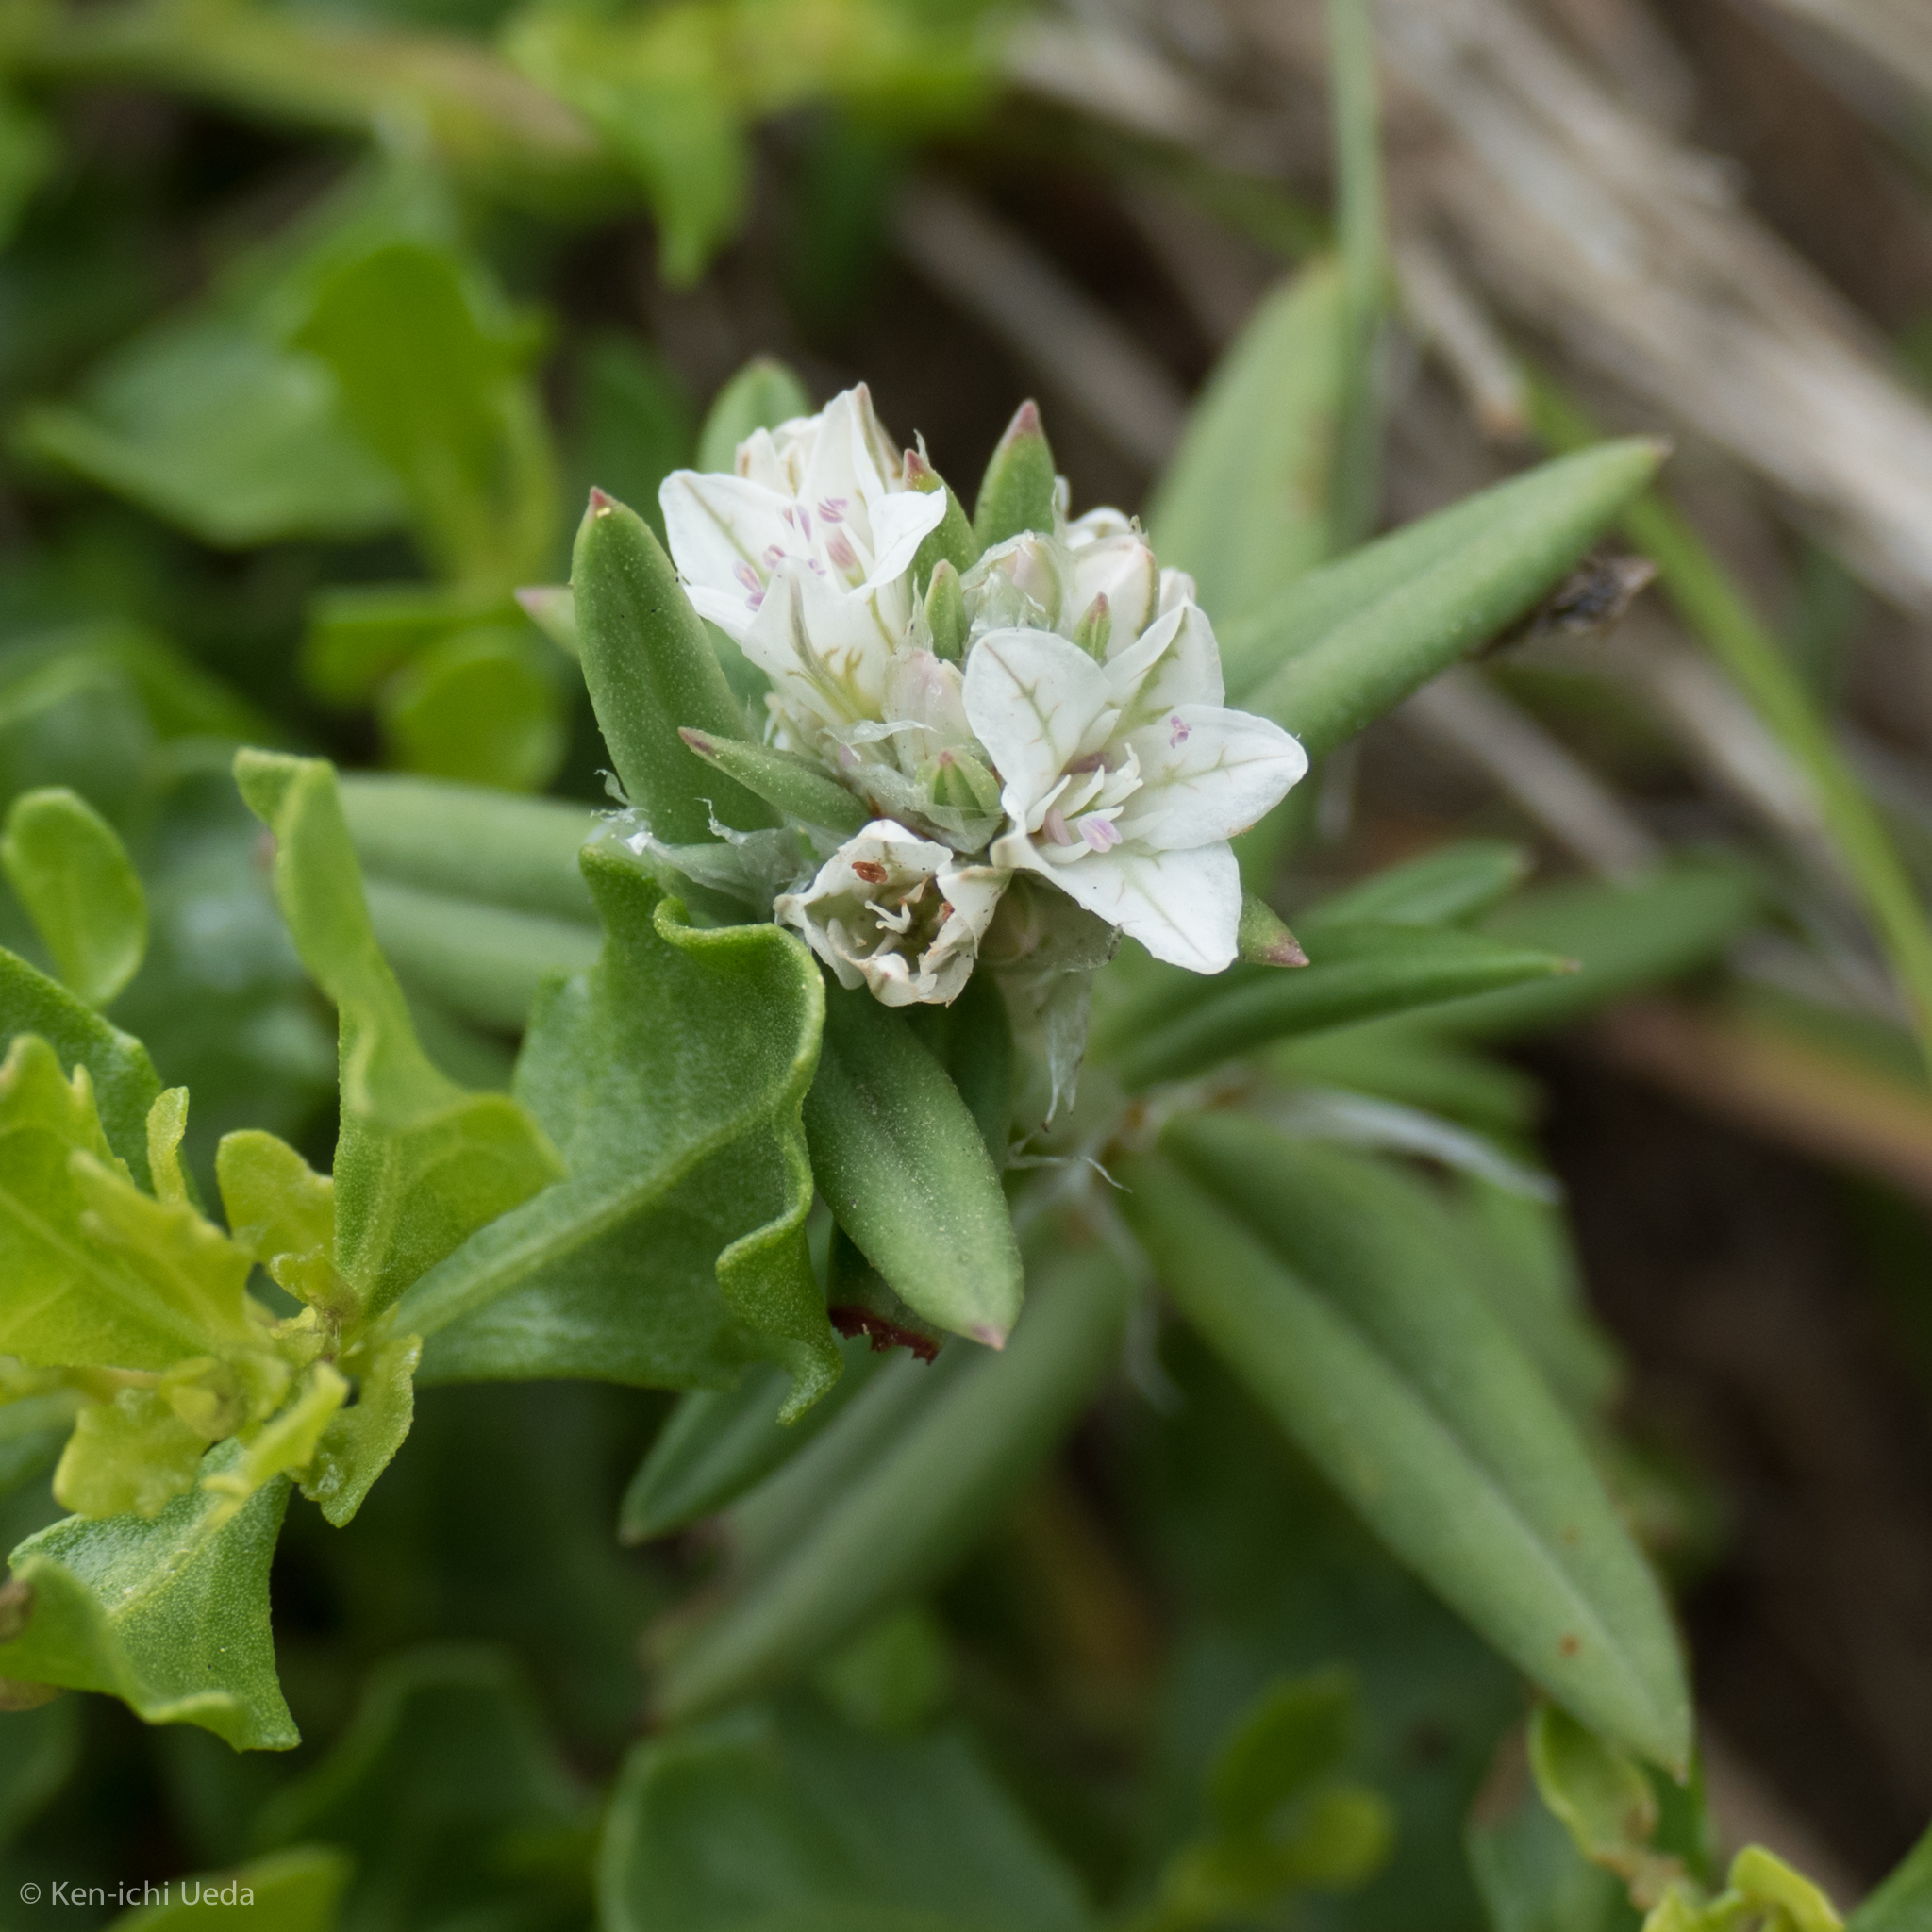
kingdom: Plantae
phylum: Tracheophyta
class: Magnoliopsida
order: Caryophyllales
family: Polygonaceae
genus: Polygonum
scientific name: Polygonum paronychia
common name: Dune knotweed
